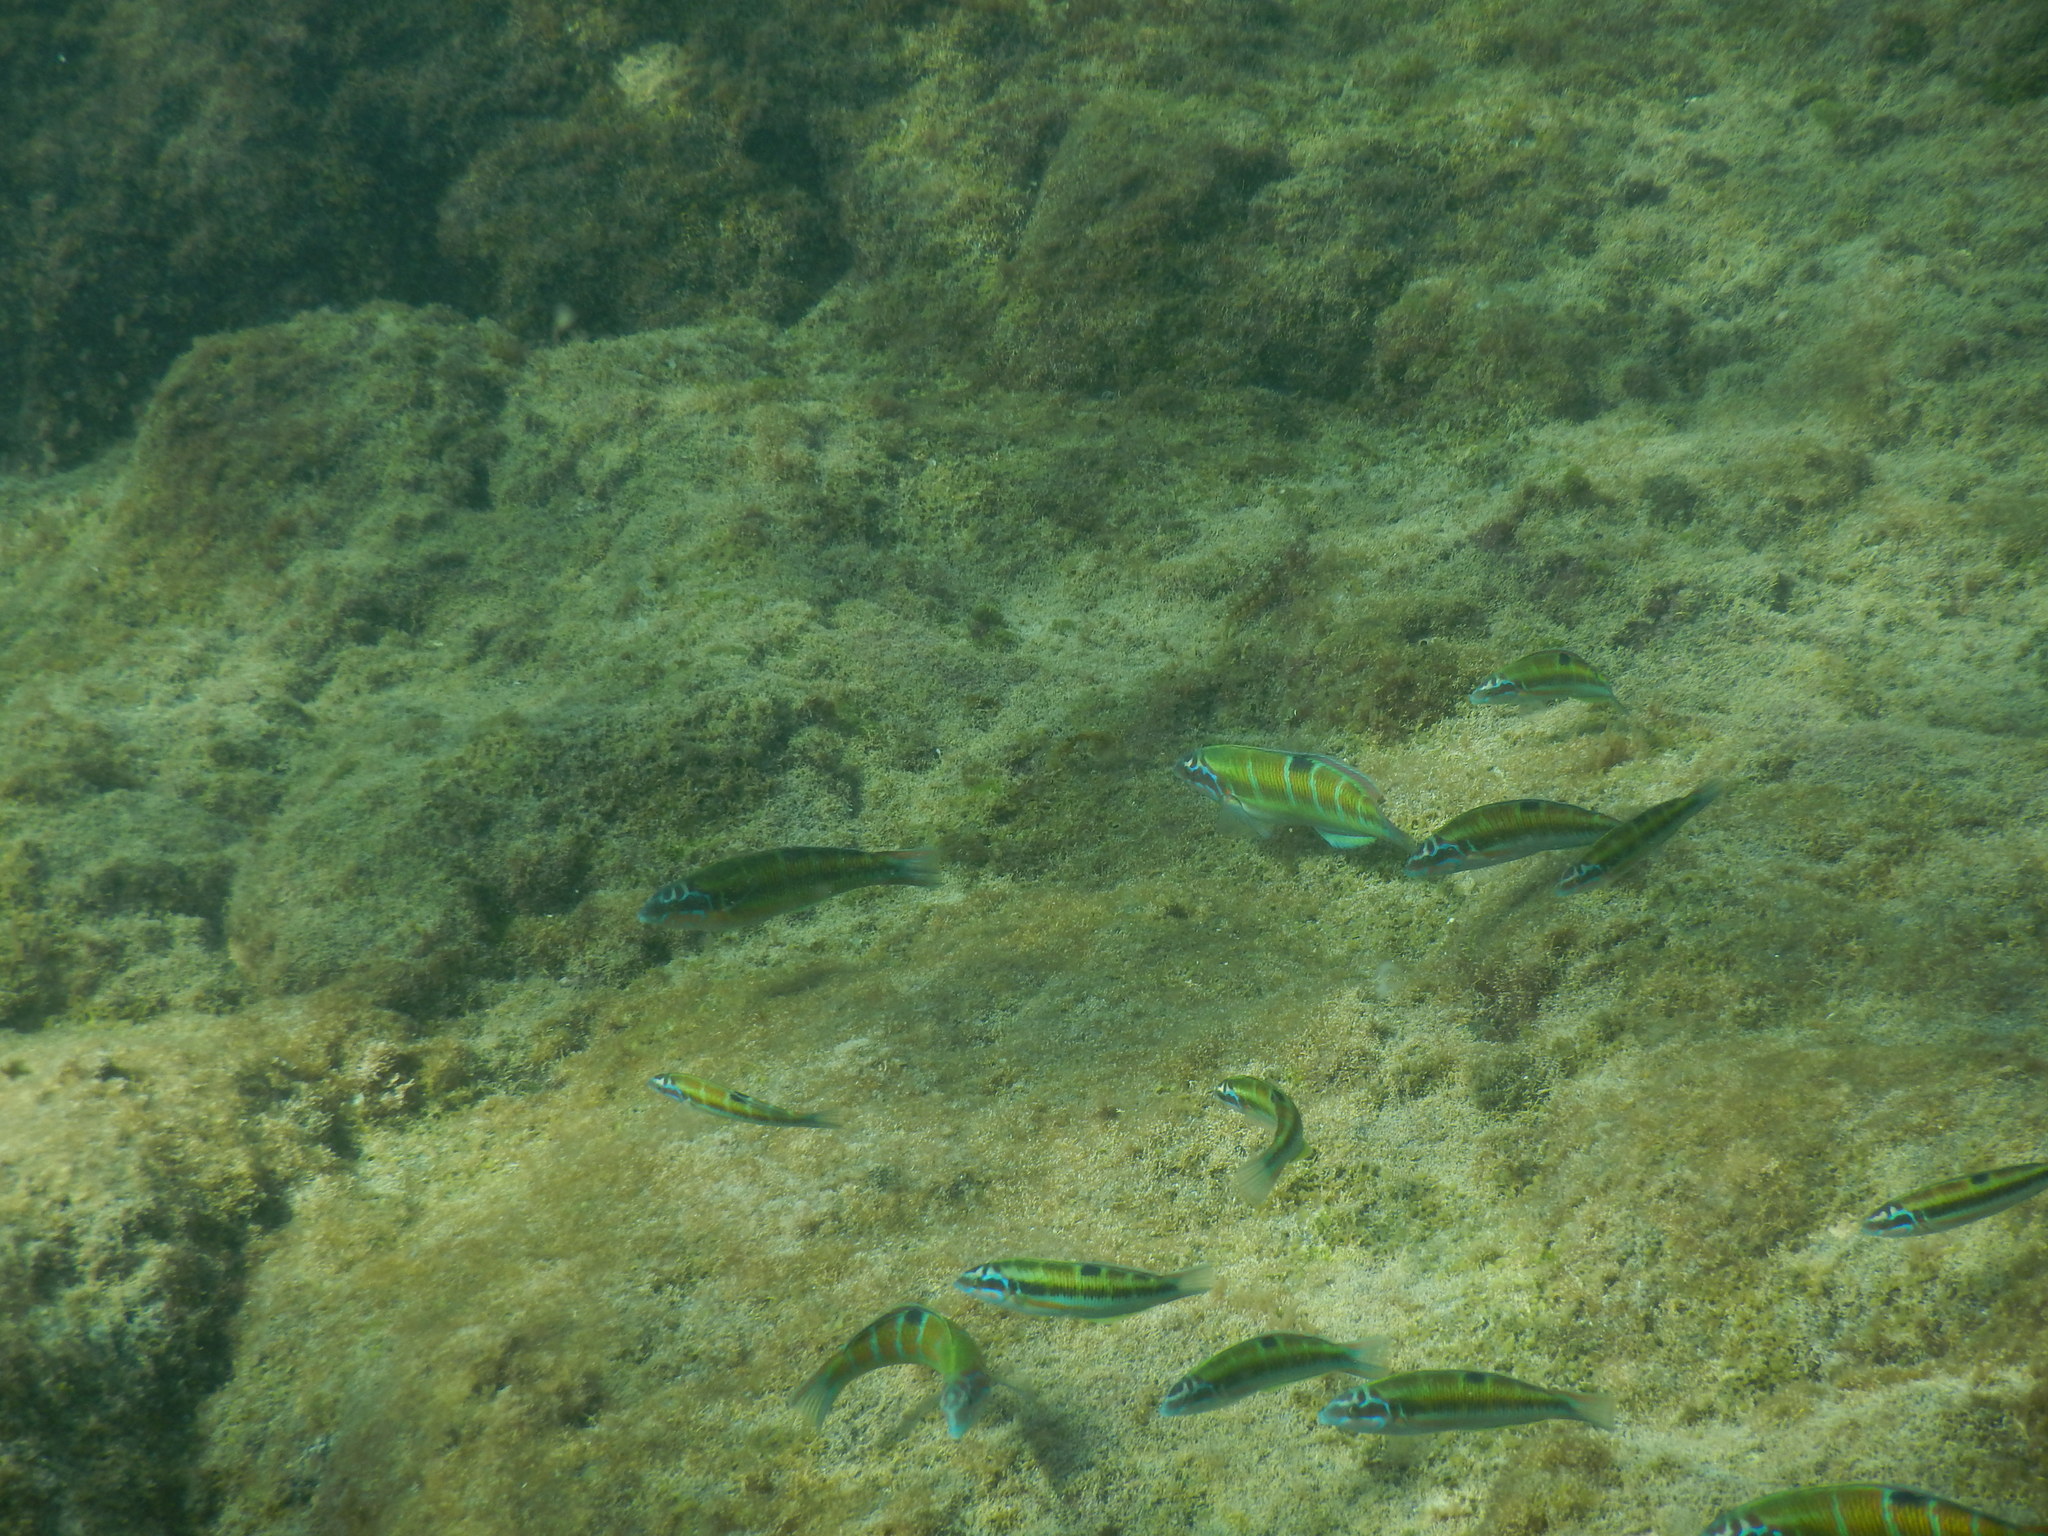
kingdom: Animalia
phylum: Chordata
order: Perciformes
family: Labridae
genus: Thalassoma
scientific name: Thalassoma pavo
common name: Ornate wrasse
